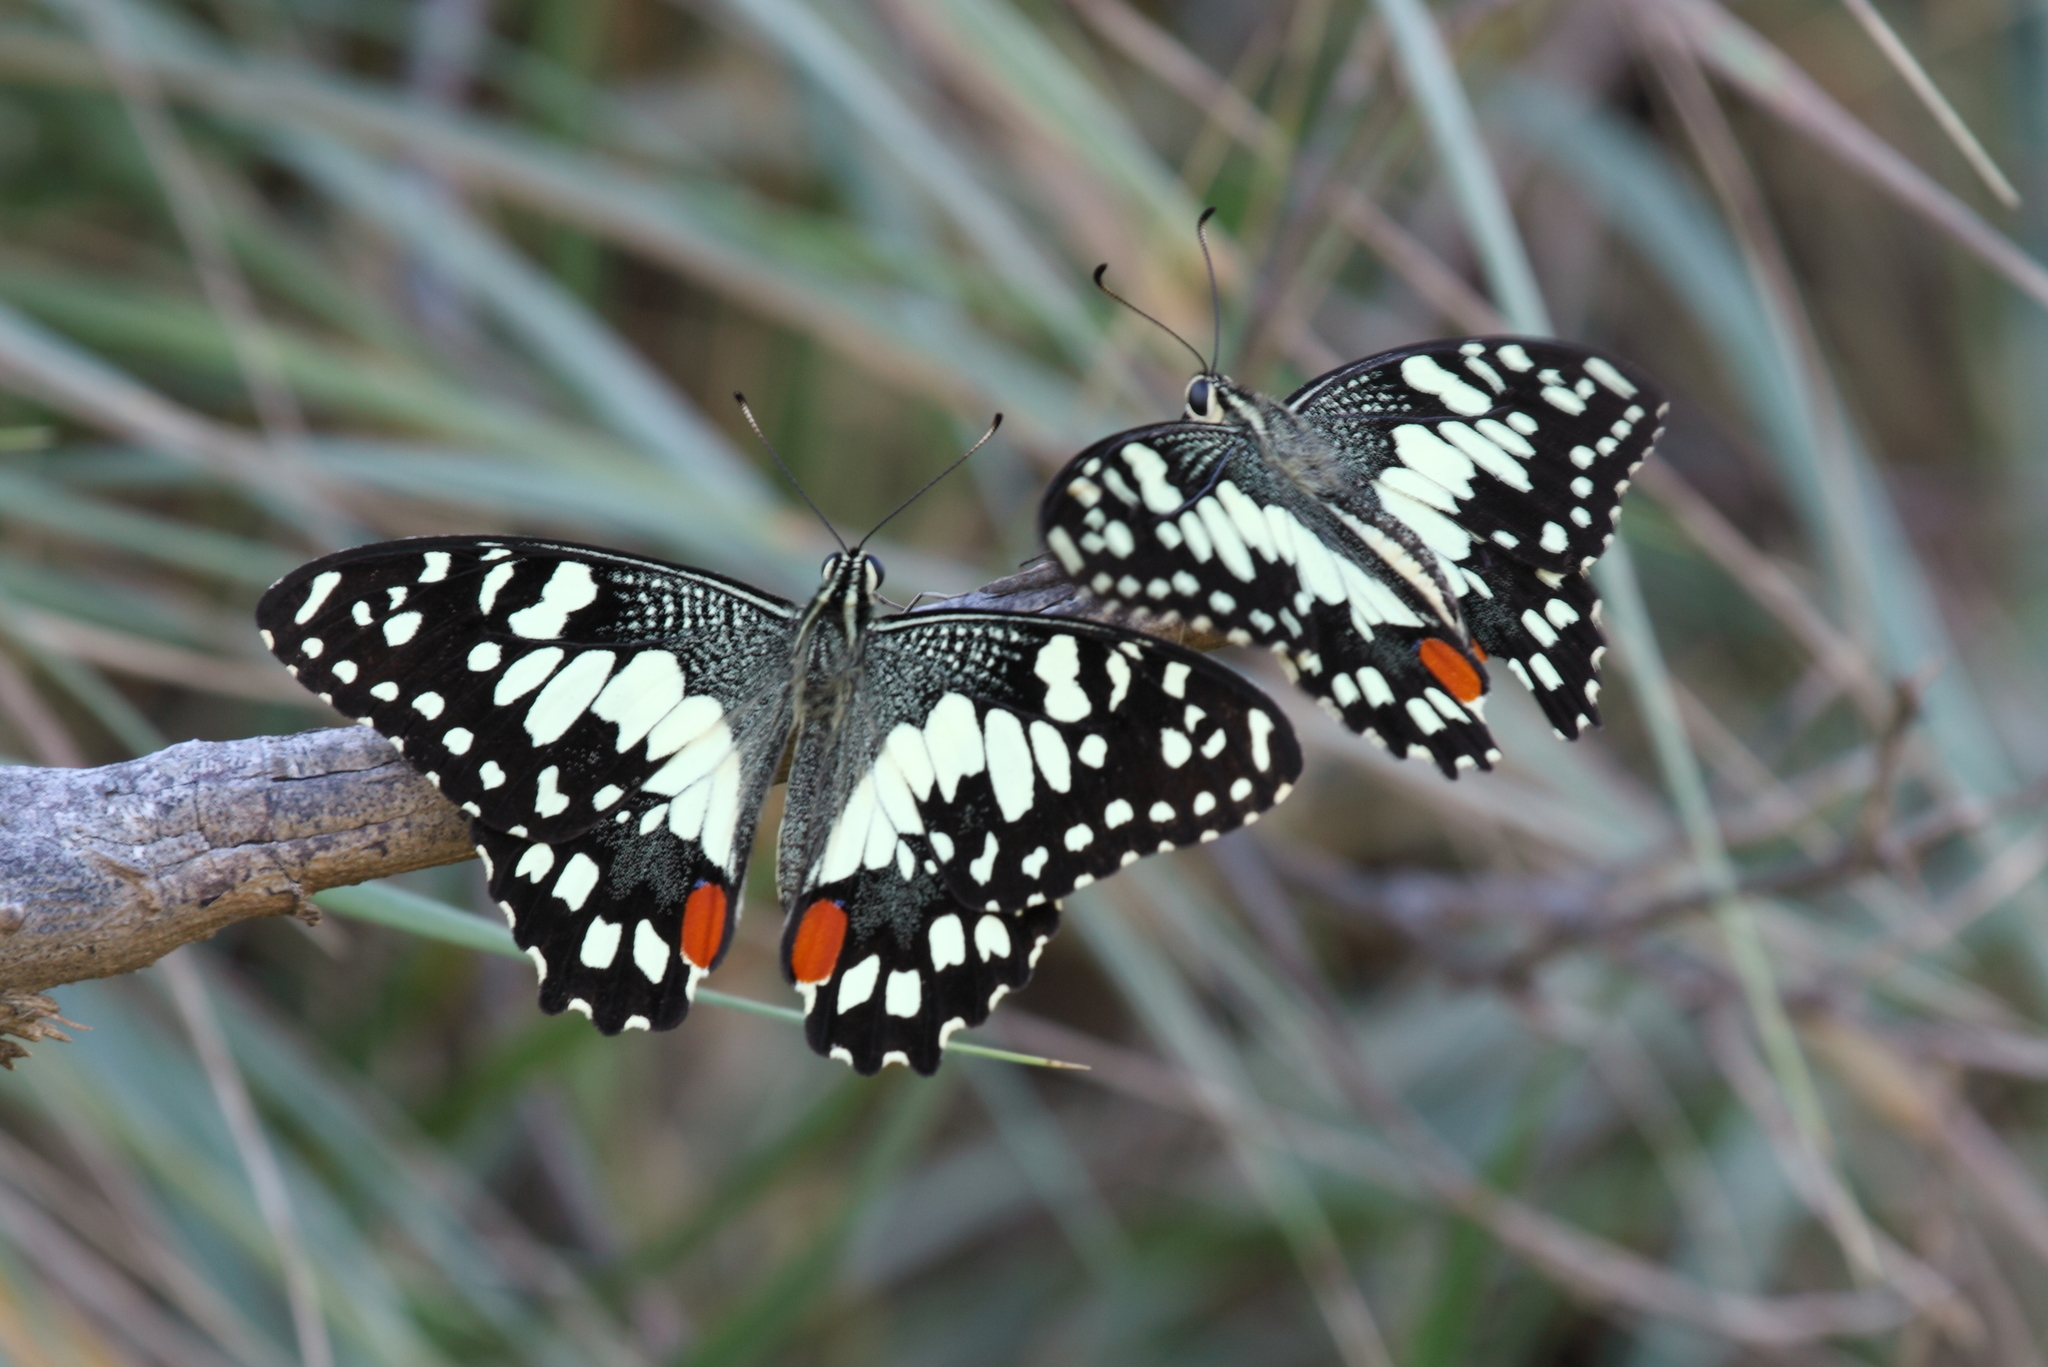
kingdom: Animalia
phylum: Arthropoda
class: Insecta
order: Lepidoptera
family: Papilionidae
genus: Papilio
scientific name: Papilio demoleus
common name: Lime butterfly
